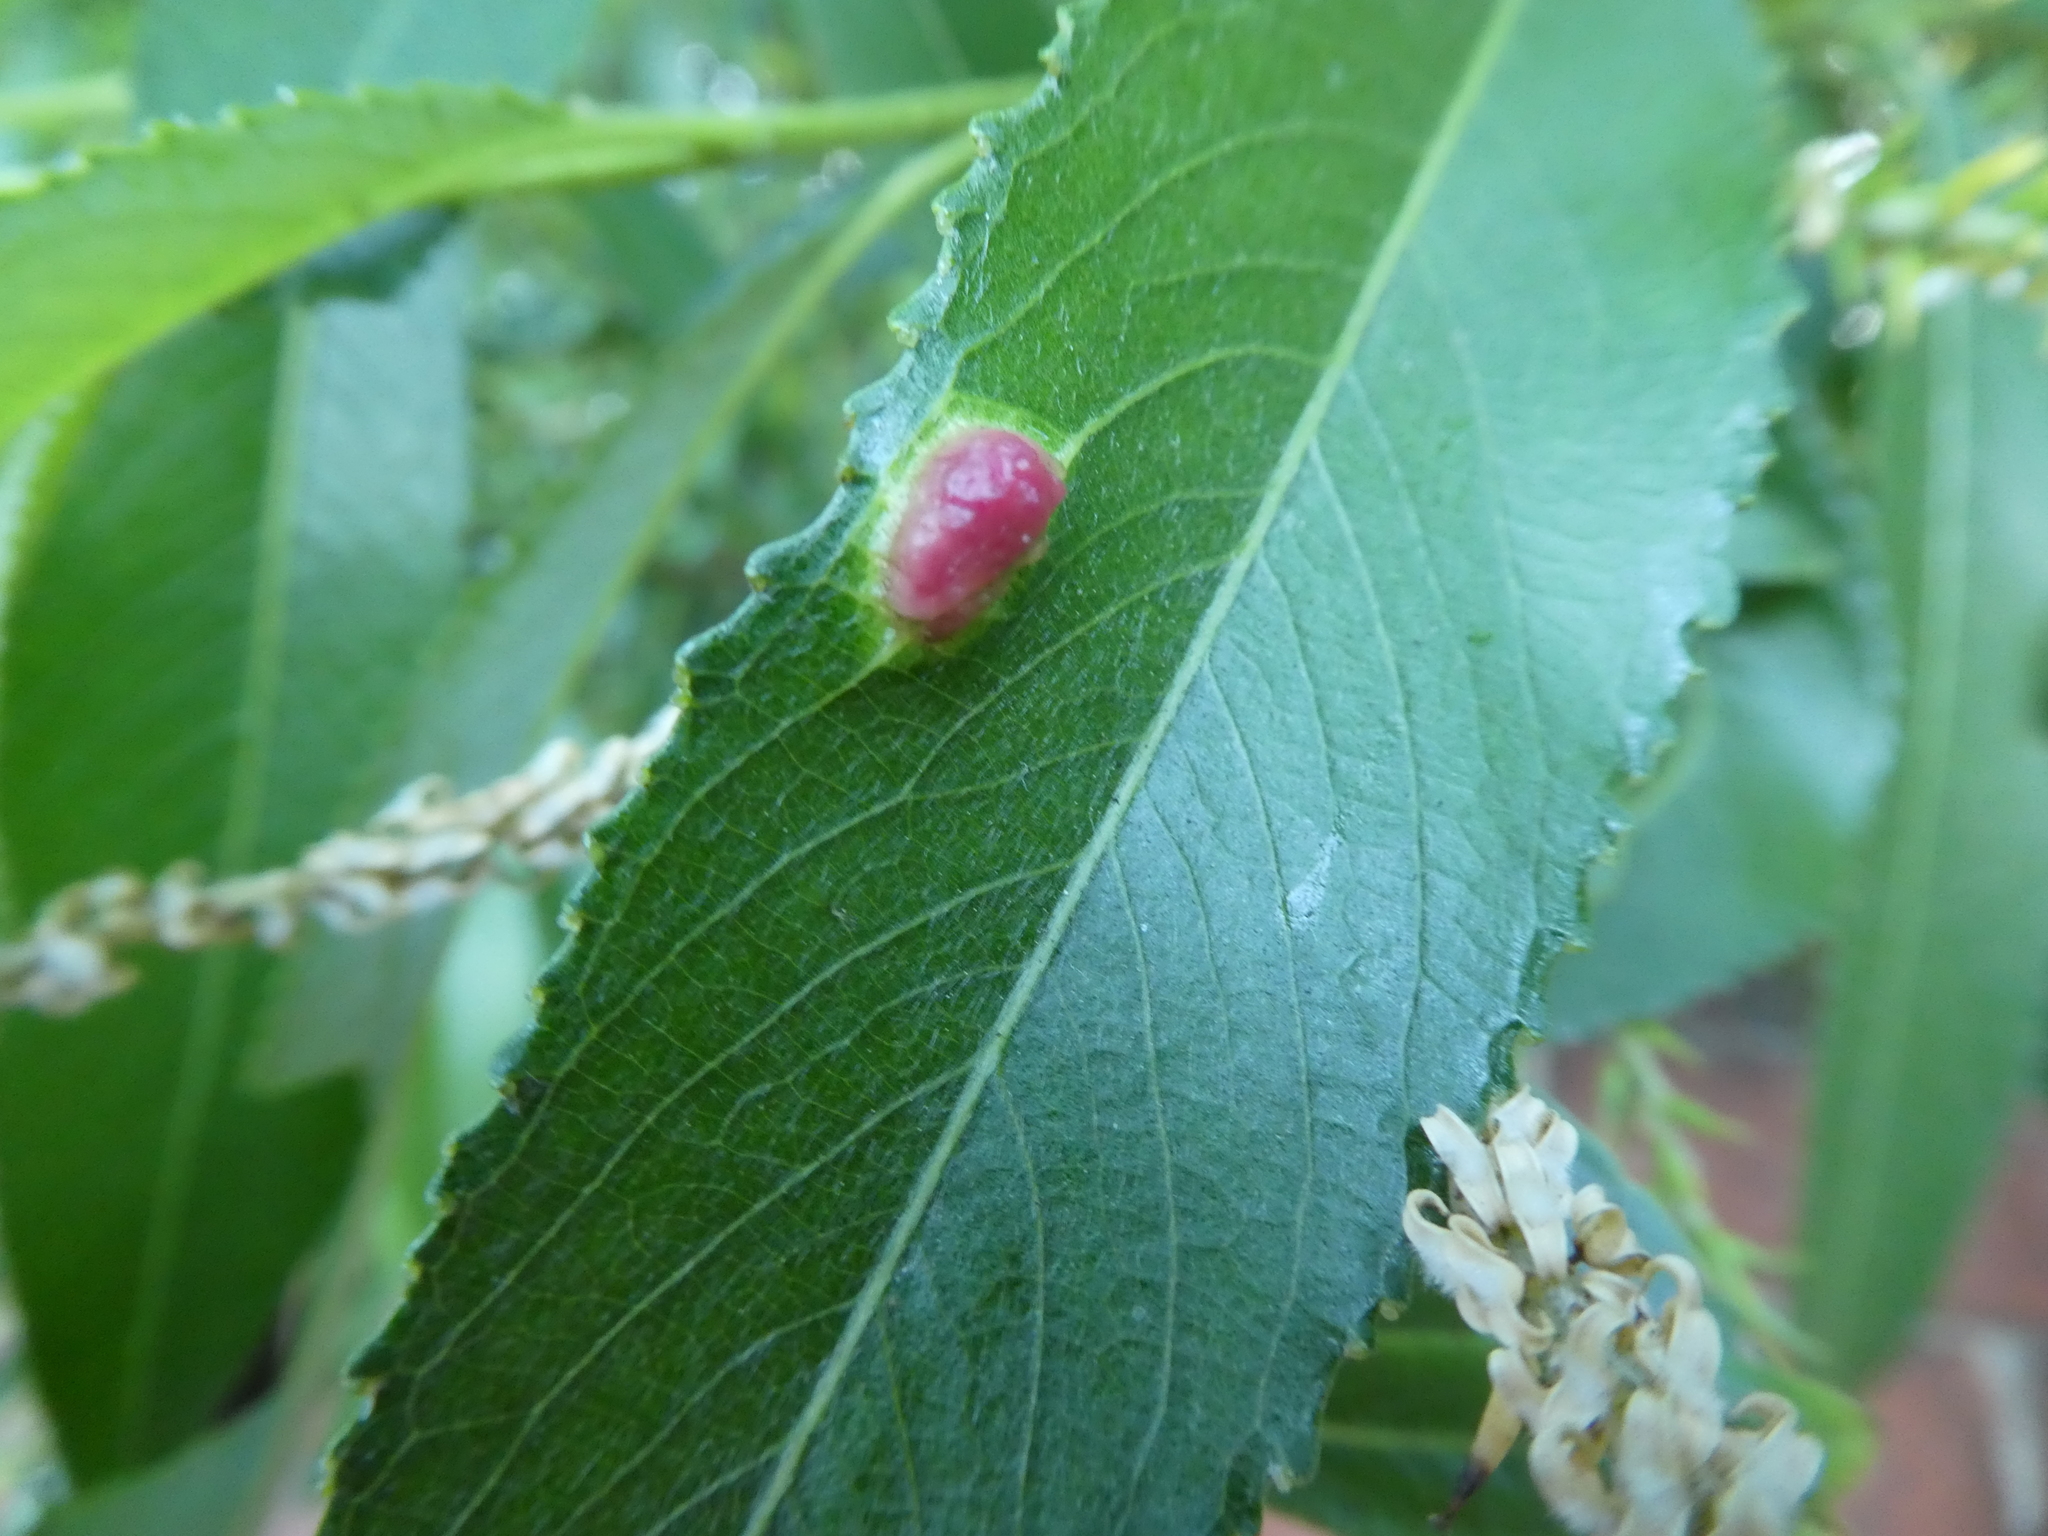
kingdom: Animalia
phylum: Arthropoda
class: Insecta
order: Hymenoptera
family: Tenthredinidae
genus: Pontania
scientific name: Pontania proxima
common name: Common sawfly
